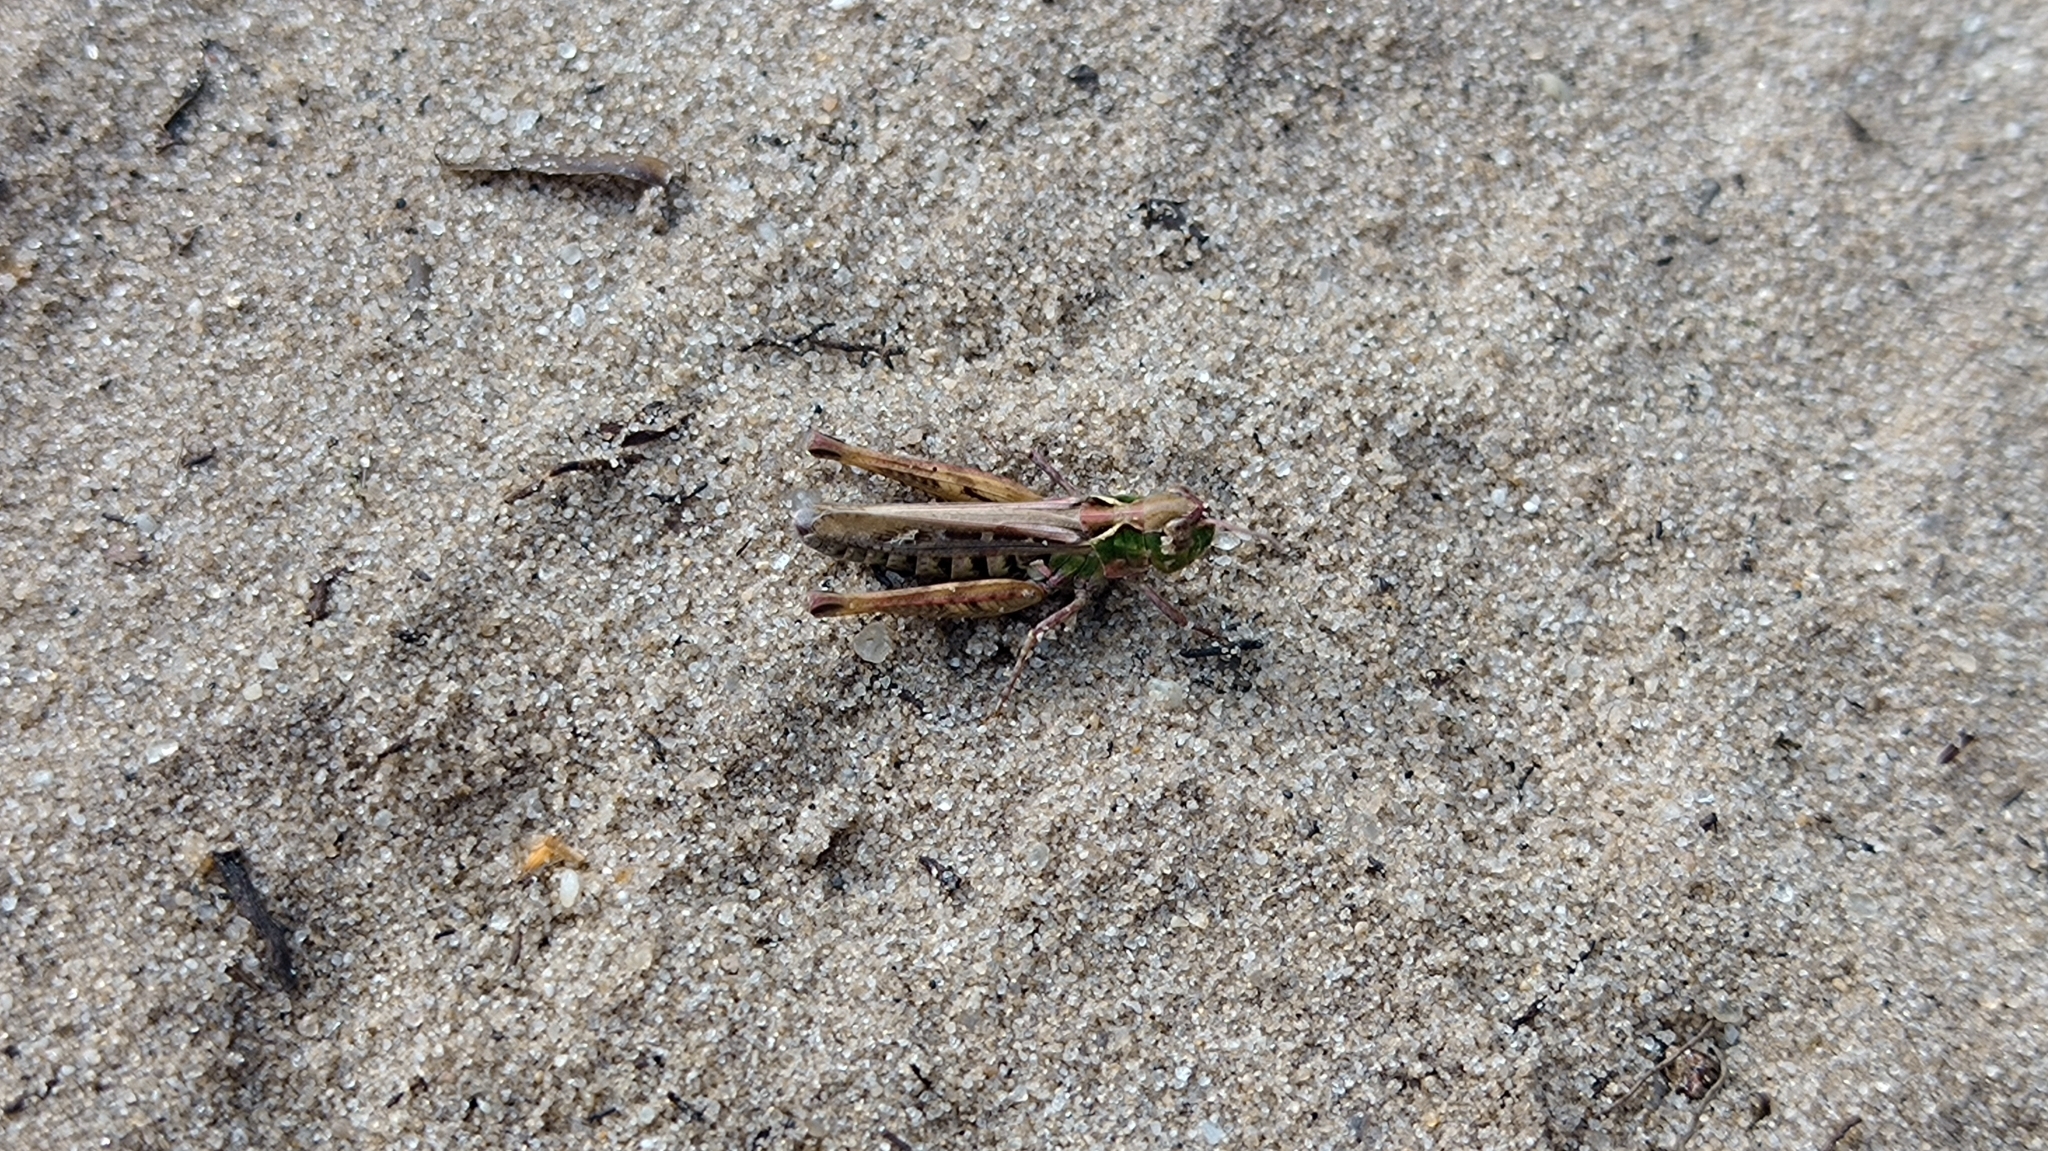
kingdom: Animalia
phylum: Arthropoda
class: Insecta
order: Orthoptera
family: Acrididae
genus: Myrmeleotettix
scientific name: Myrmeleotettix maculatus
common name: Mottled grasshopper
